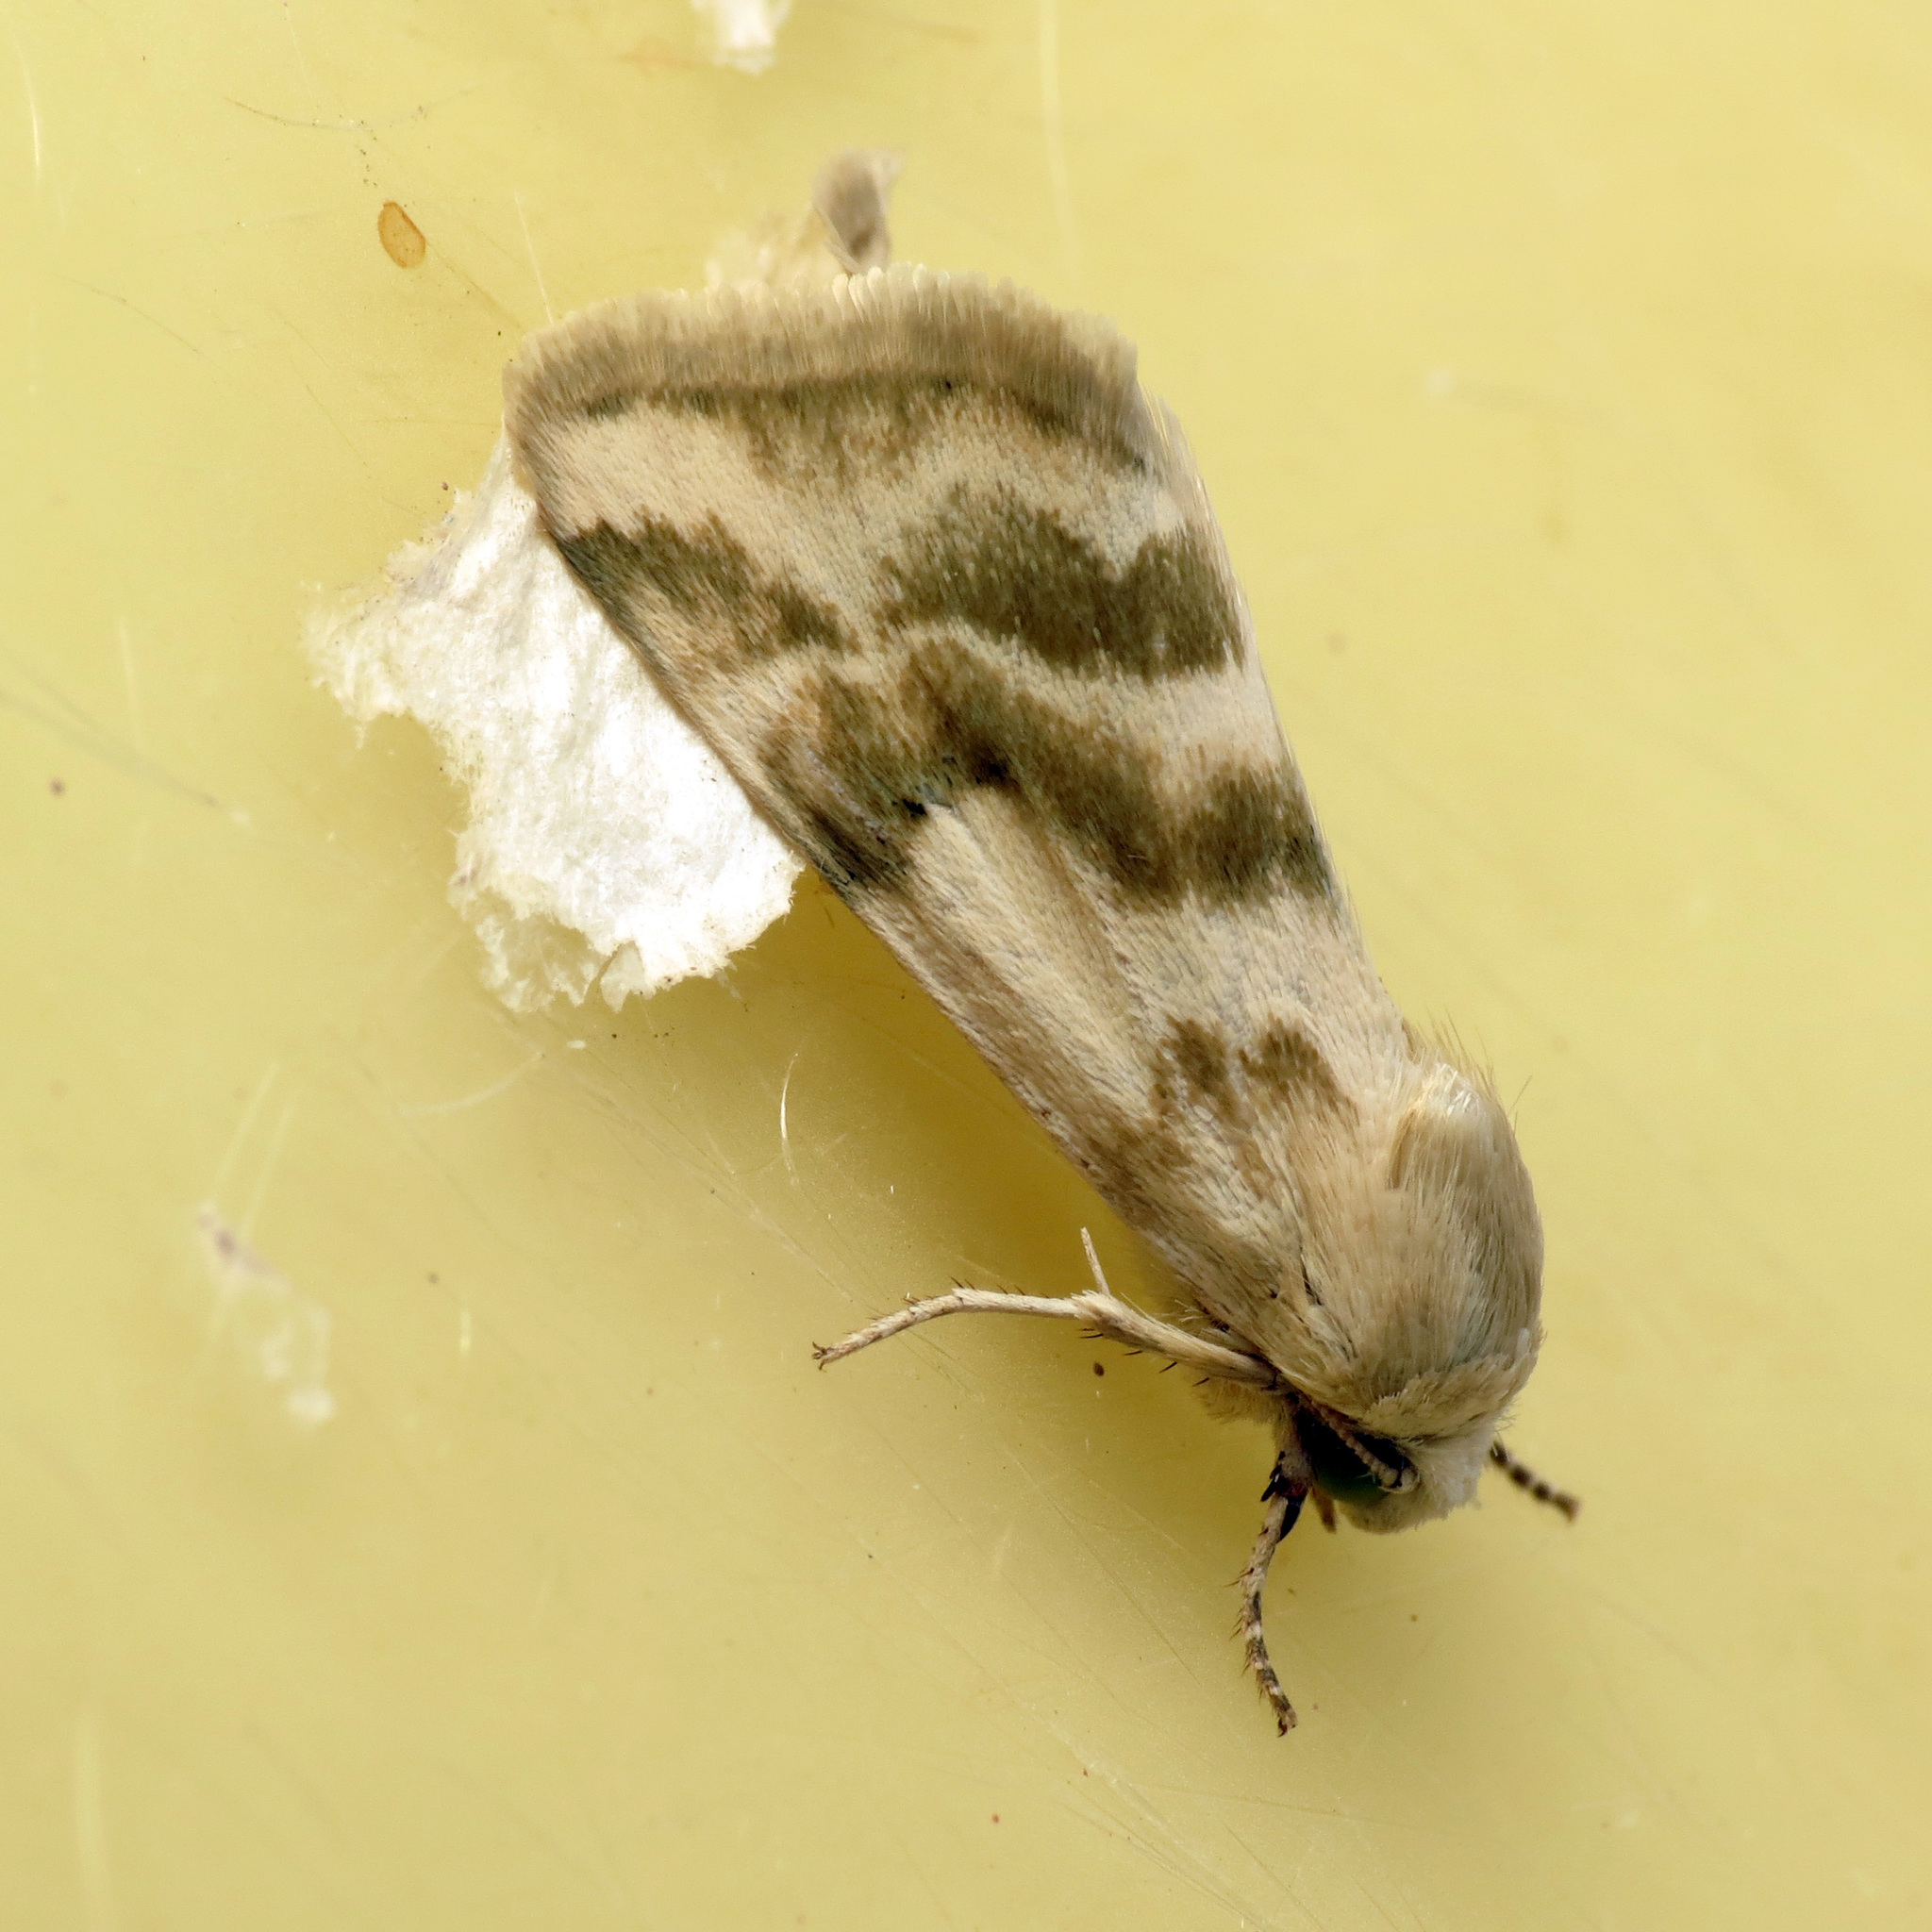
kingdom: Animalia
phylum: Arthropoda
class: Insecta
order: Lepidoptera
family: Noctuidae
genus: Schinia
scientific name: Schinia obliqua
